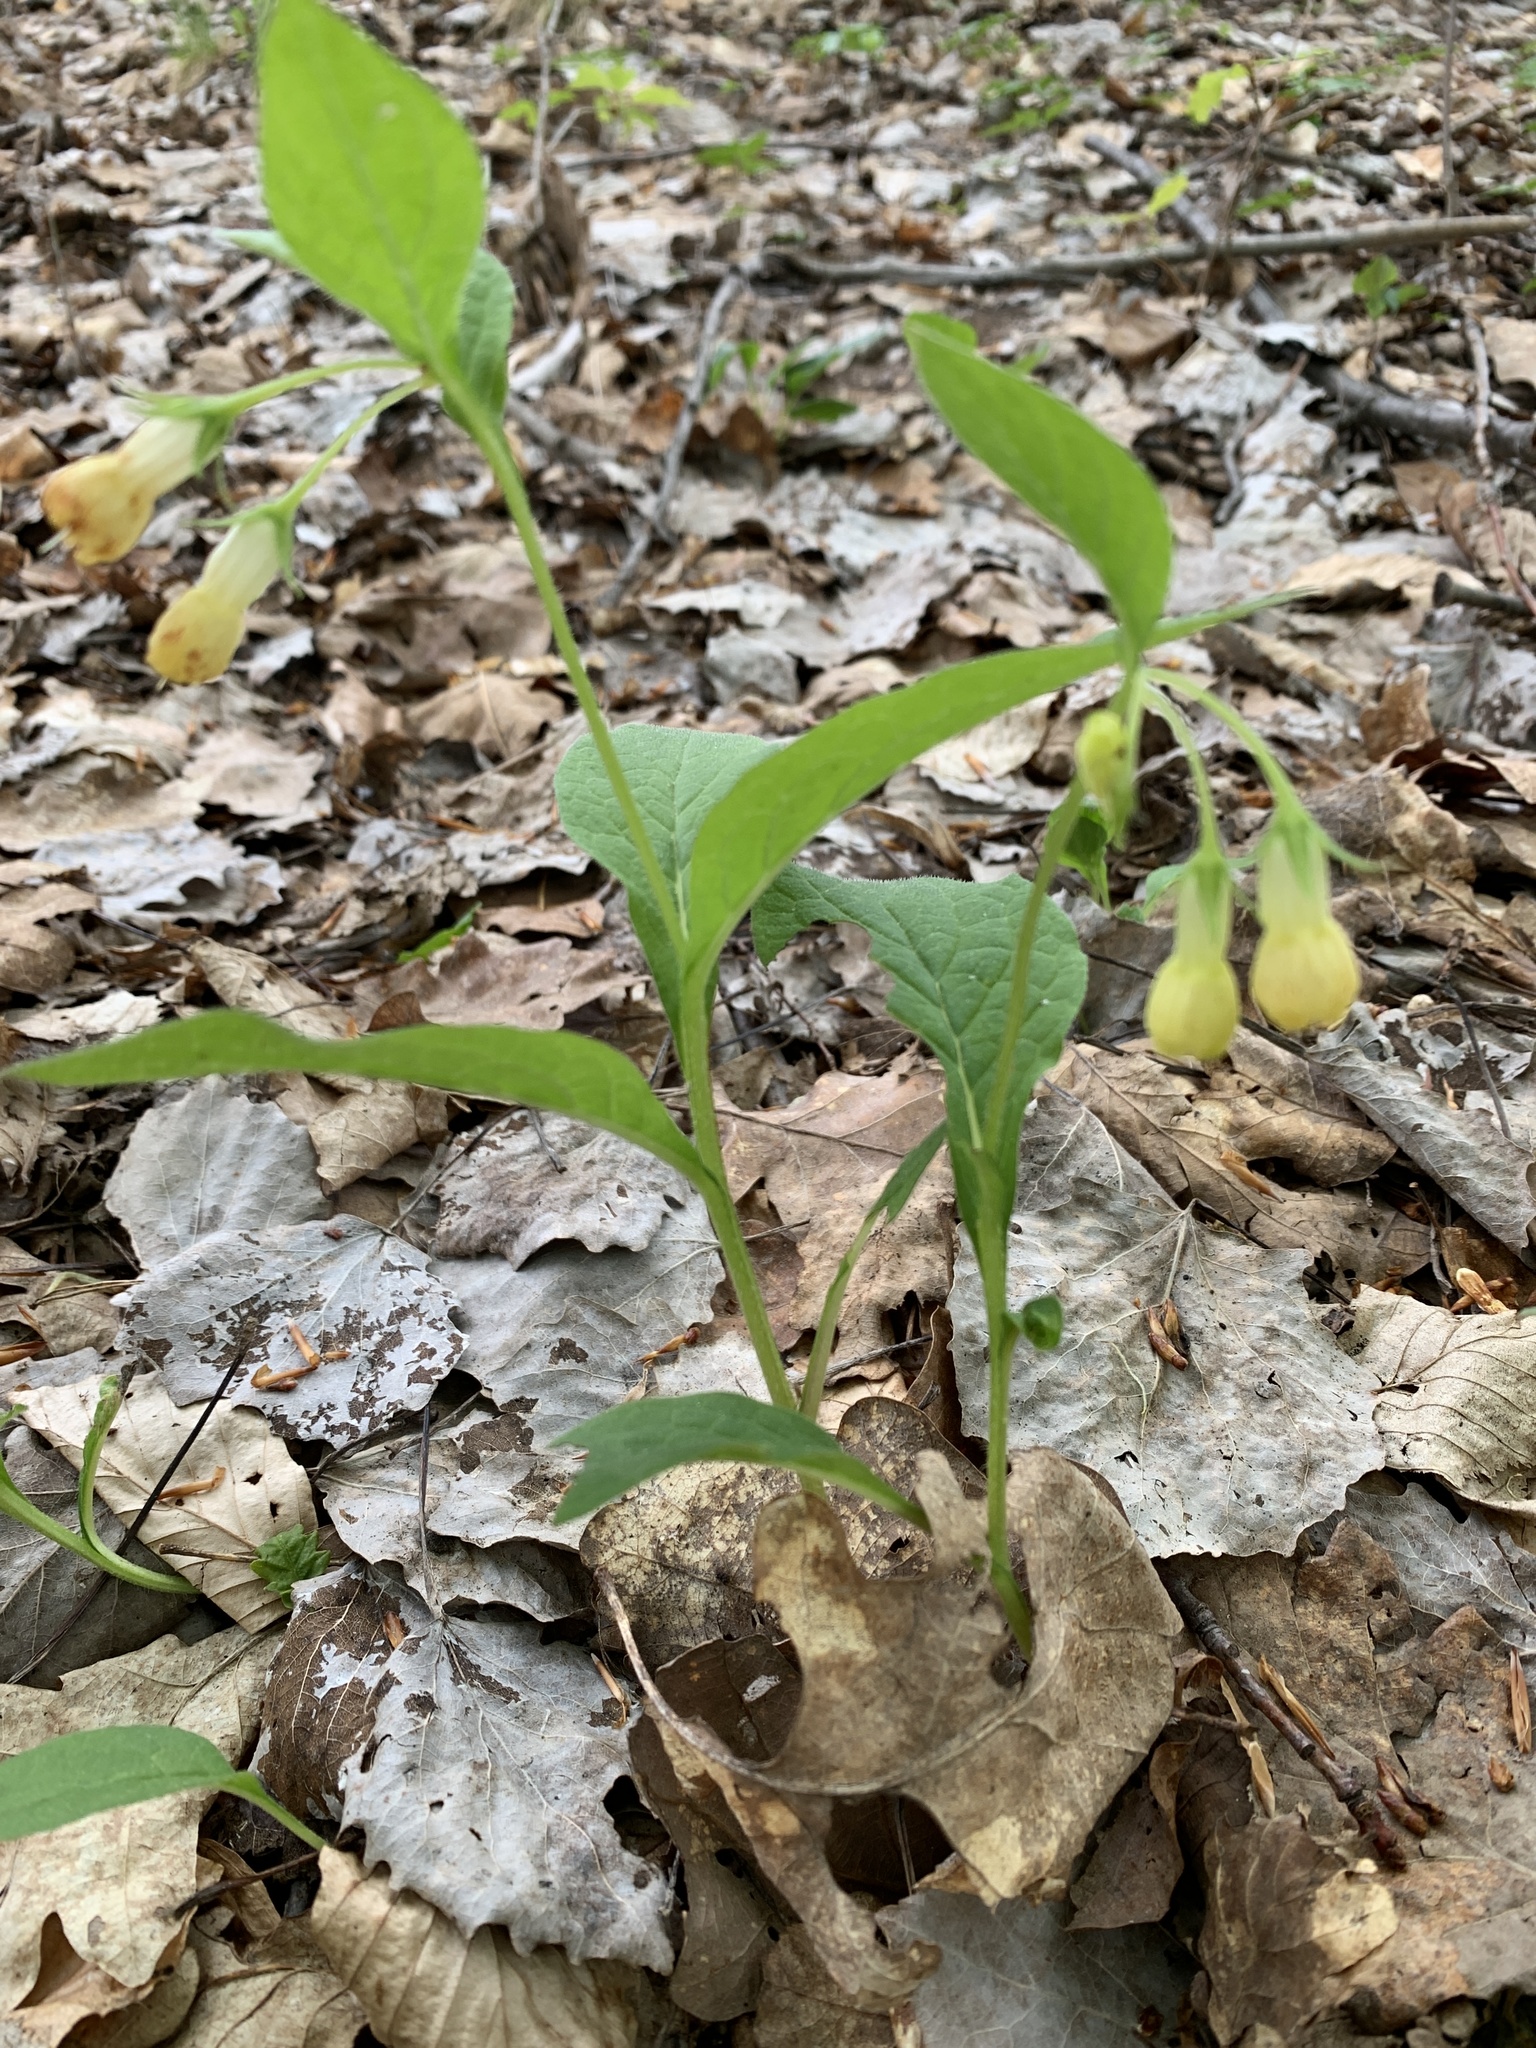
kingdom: Plantae
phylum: Tracheophyta
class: Magnoliopsida
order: Boraginales
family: Boraginaceae
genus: Symphytum
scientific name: Symphytum tuberosum
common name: Tuberous comfrey
